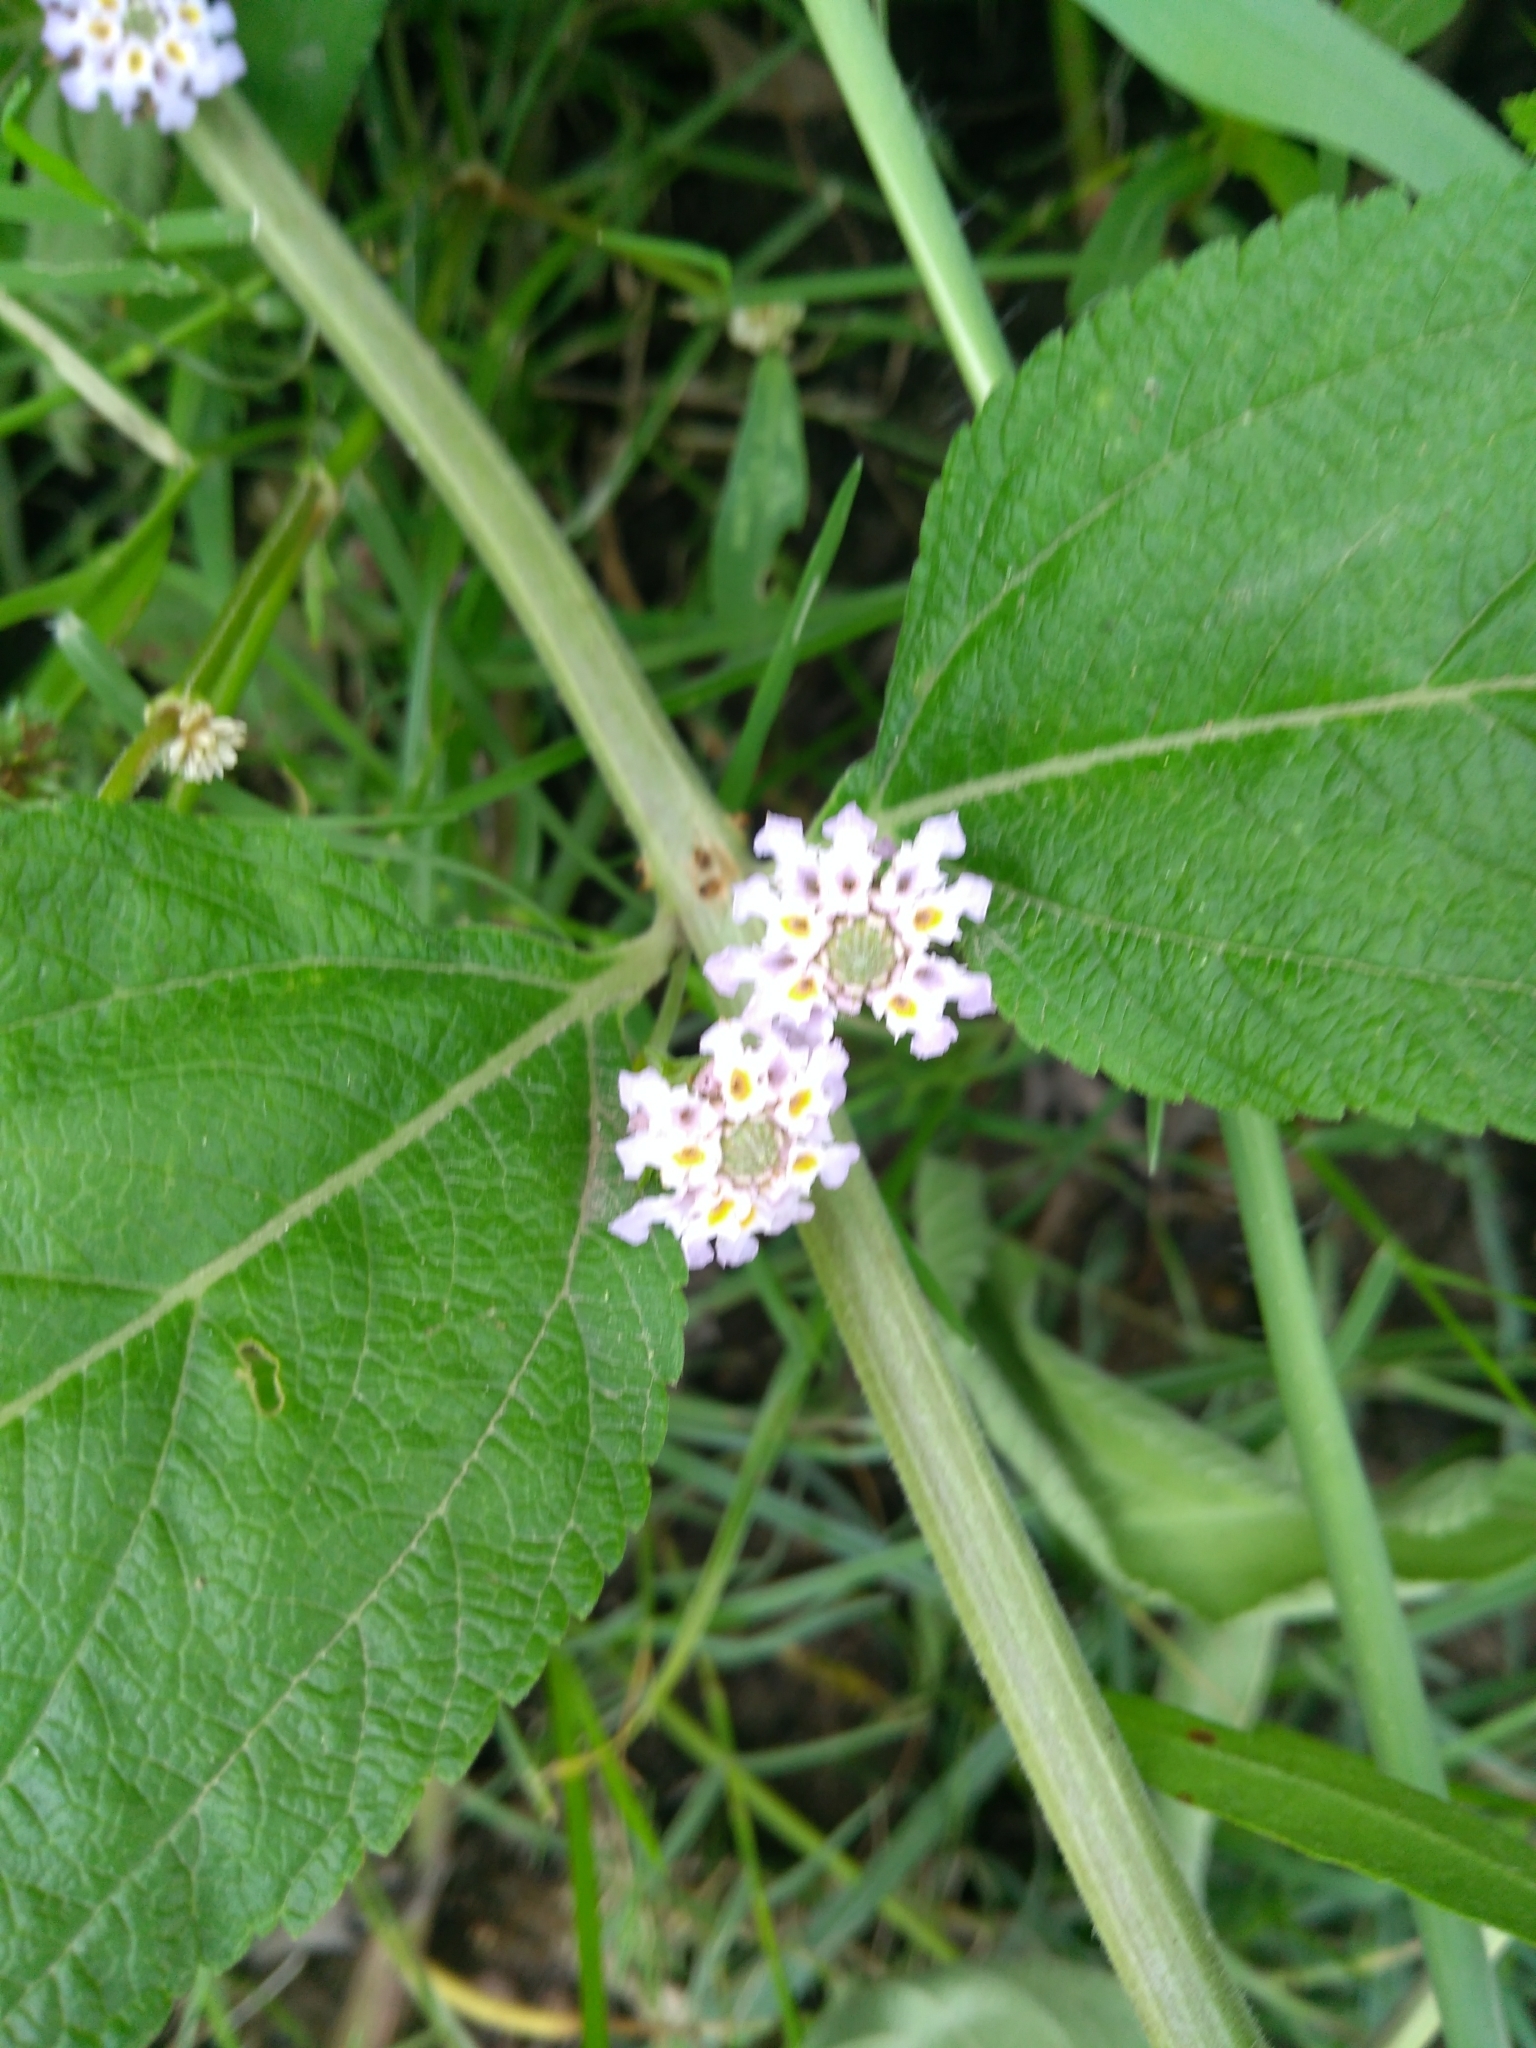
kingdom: Plantae
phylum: Tracheophyta
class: Magnoliopsida
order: Lamiales
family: Verbenaceae
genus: Lippia
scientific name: Lippia alba
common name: Bushy matgrass
